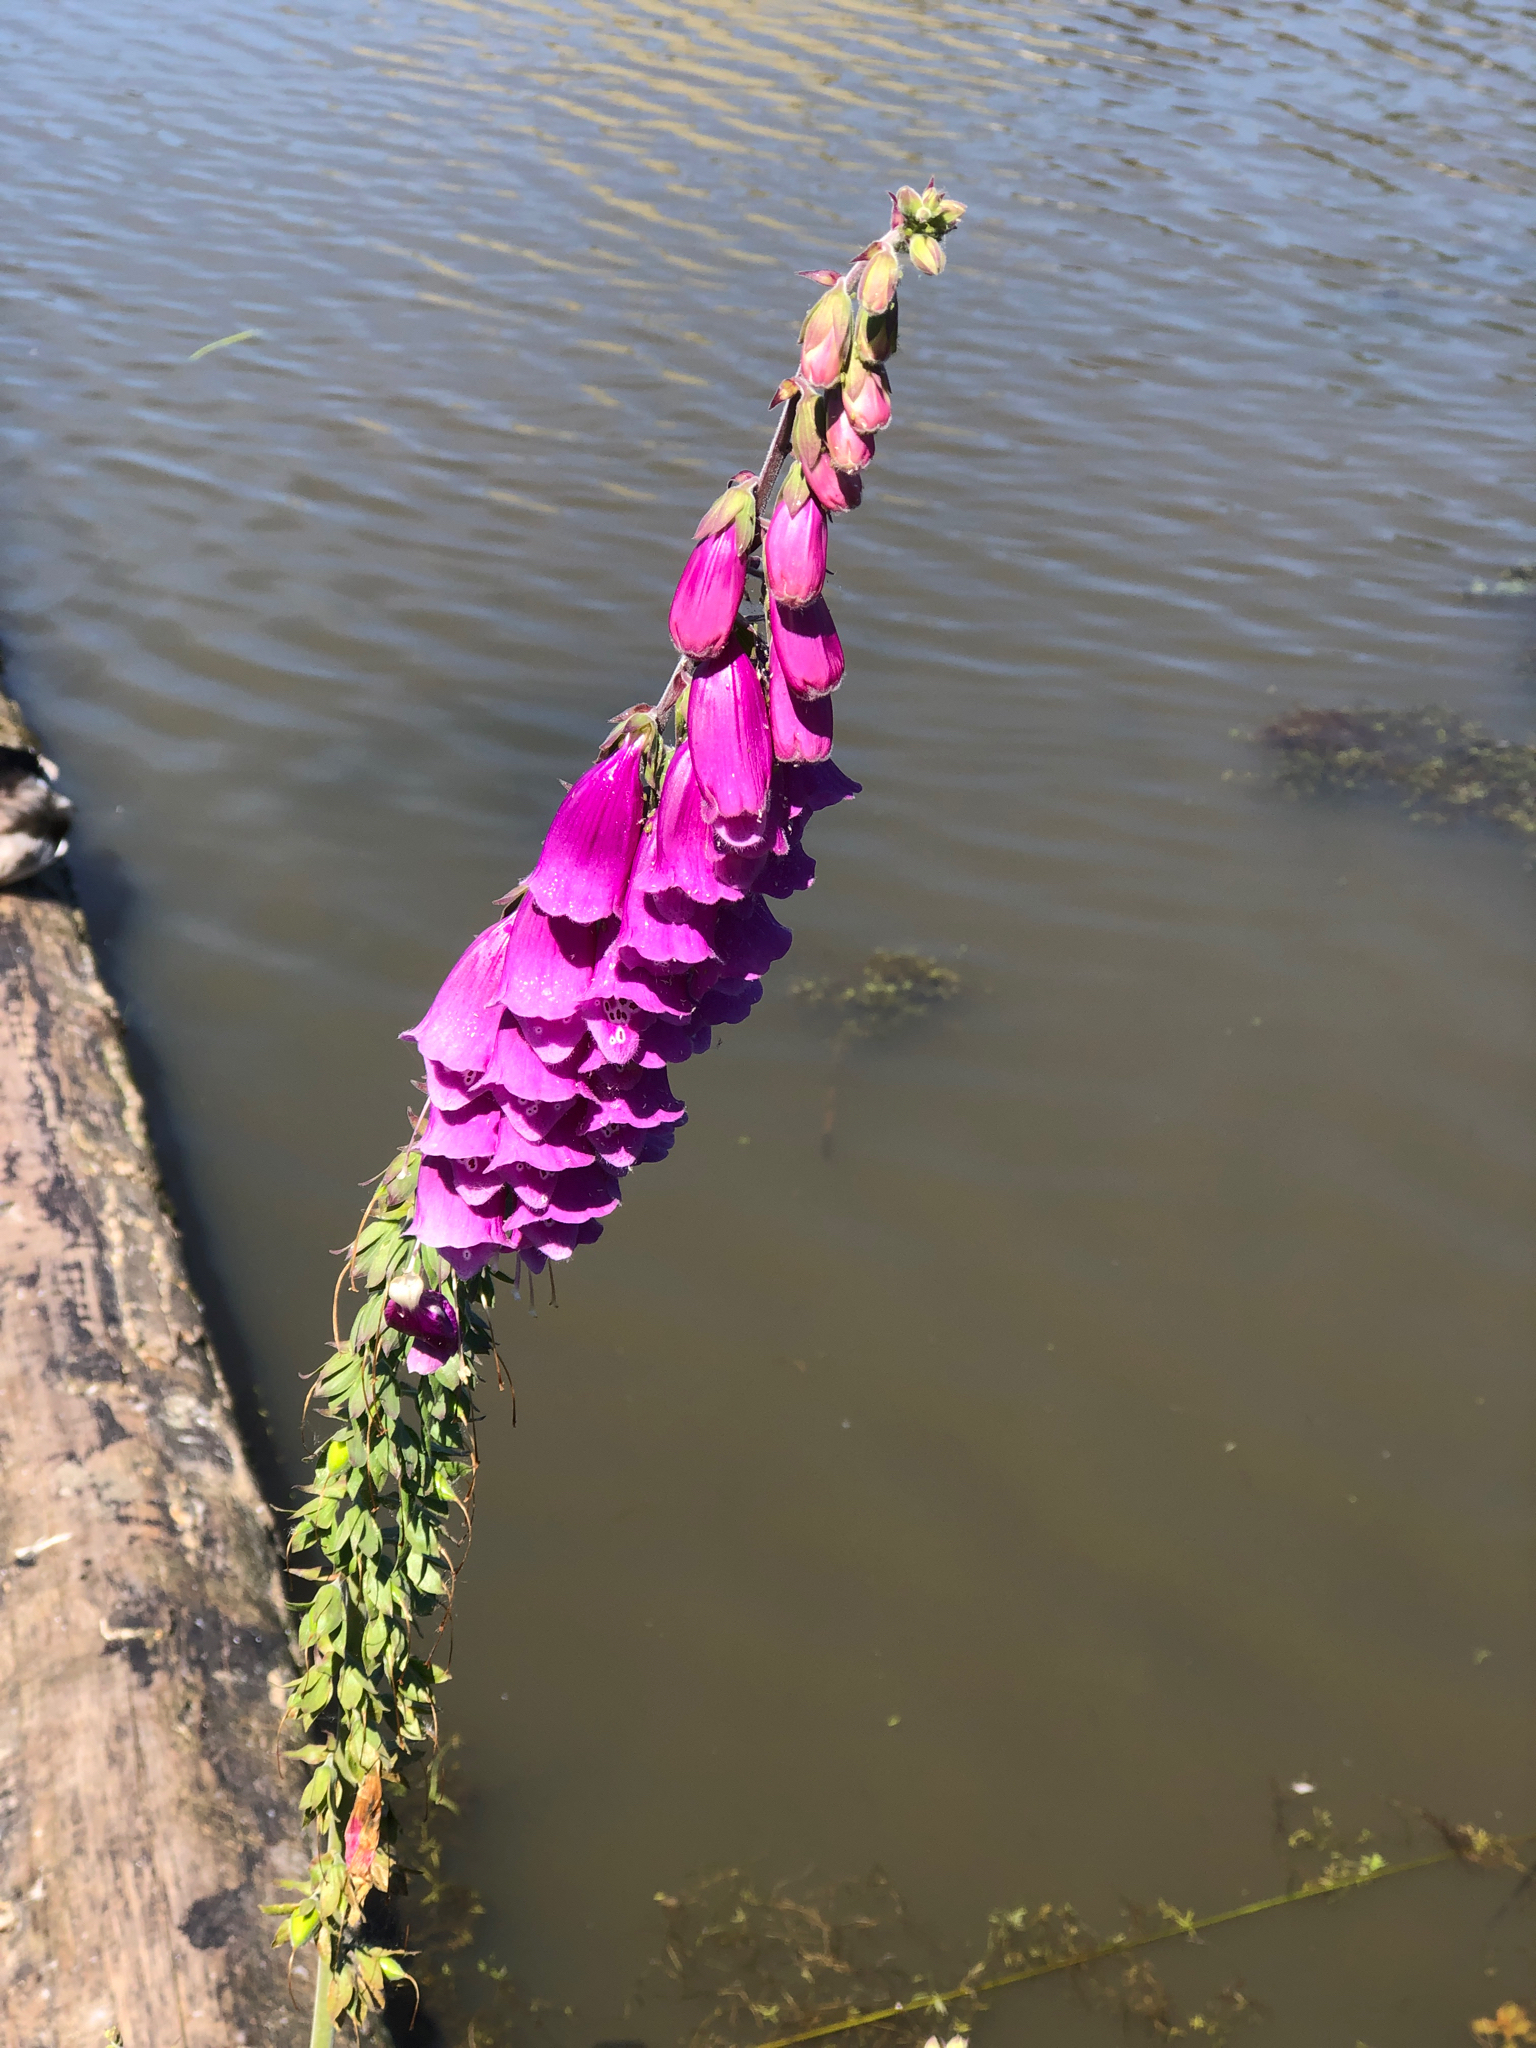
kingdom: Plantae
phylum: Tracheophyta
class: Magnoliopsida
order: Lamiales
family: Plantaginaceae
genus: Digitalis
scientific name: Digitalis purpurea
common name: Foxglove
